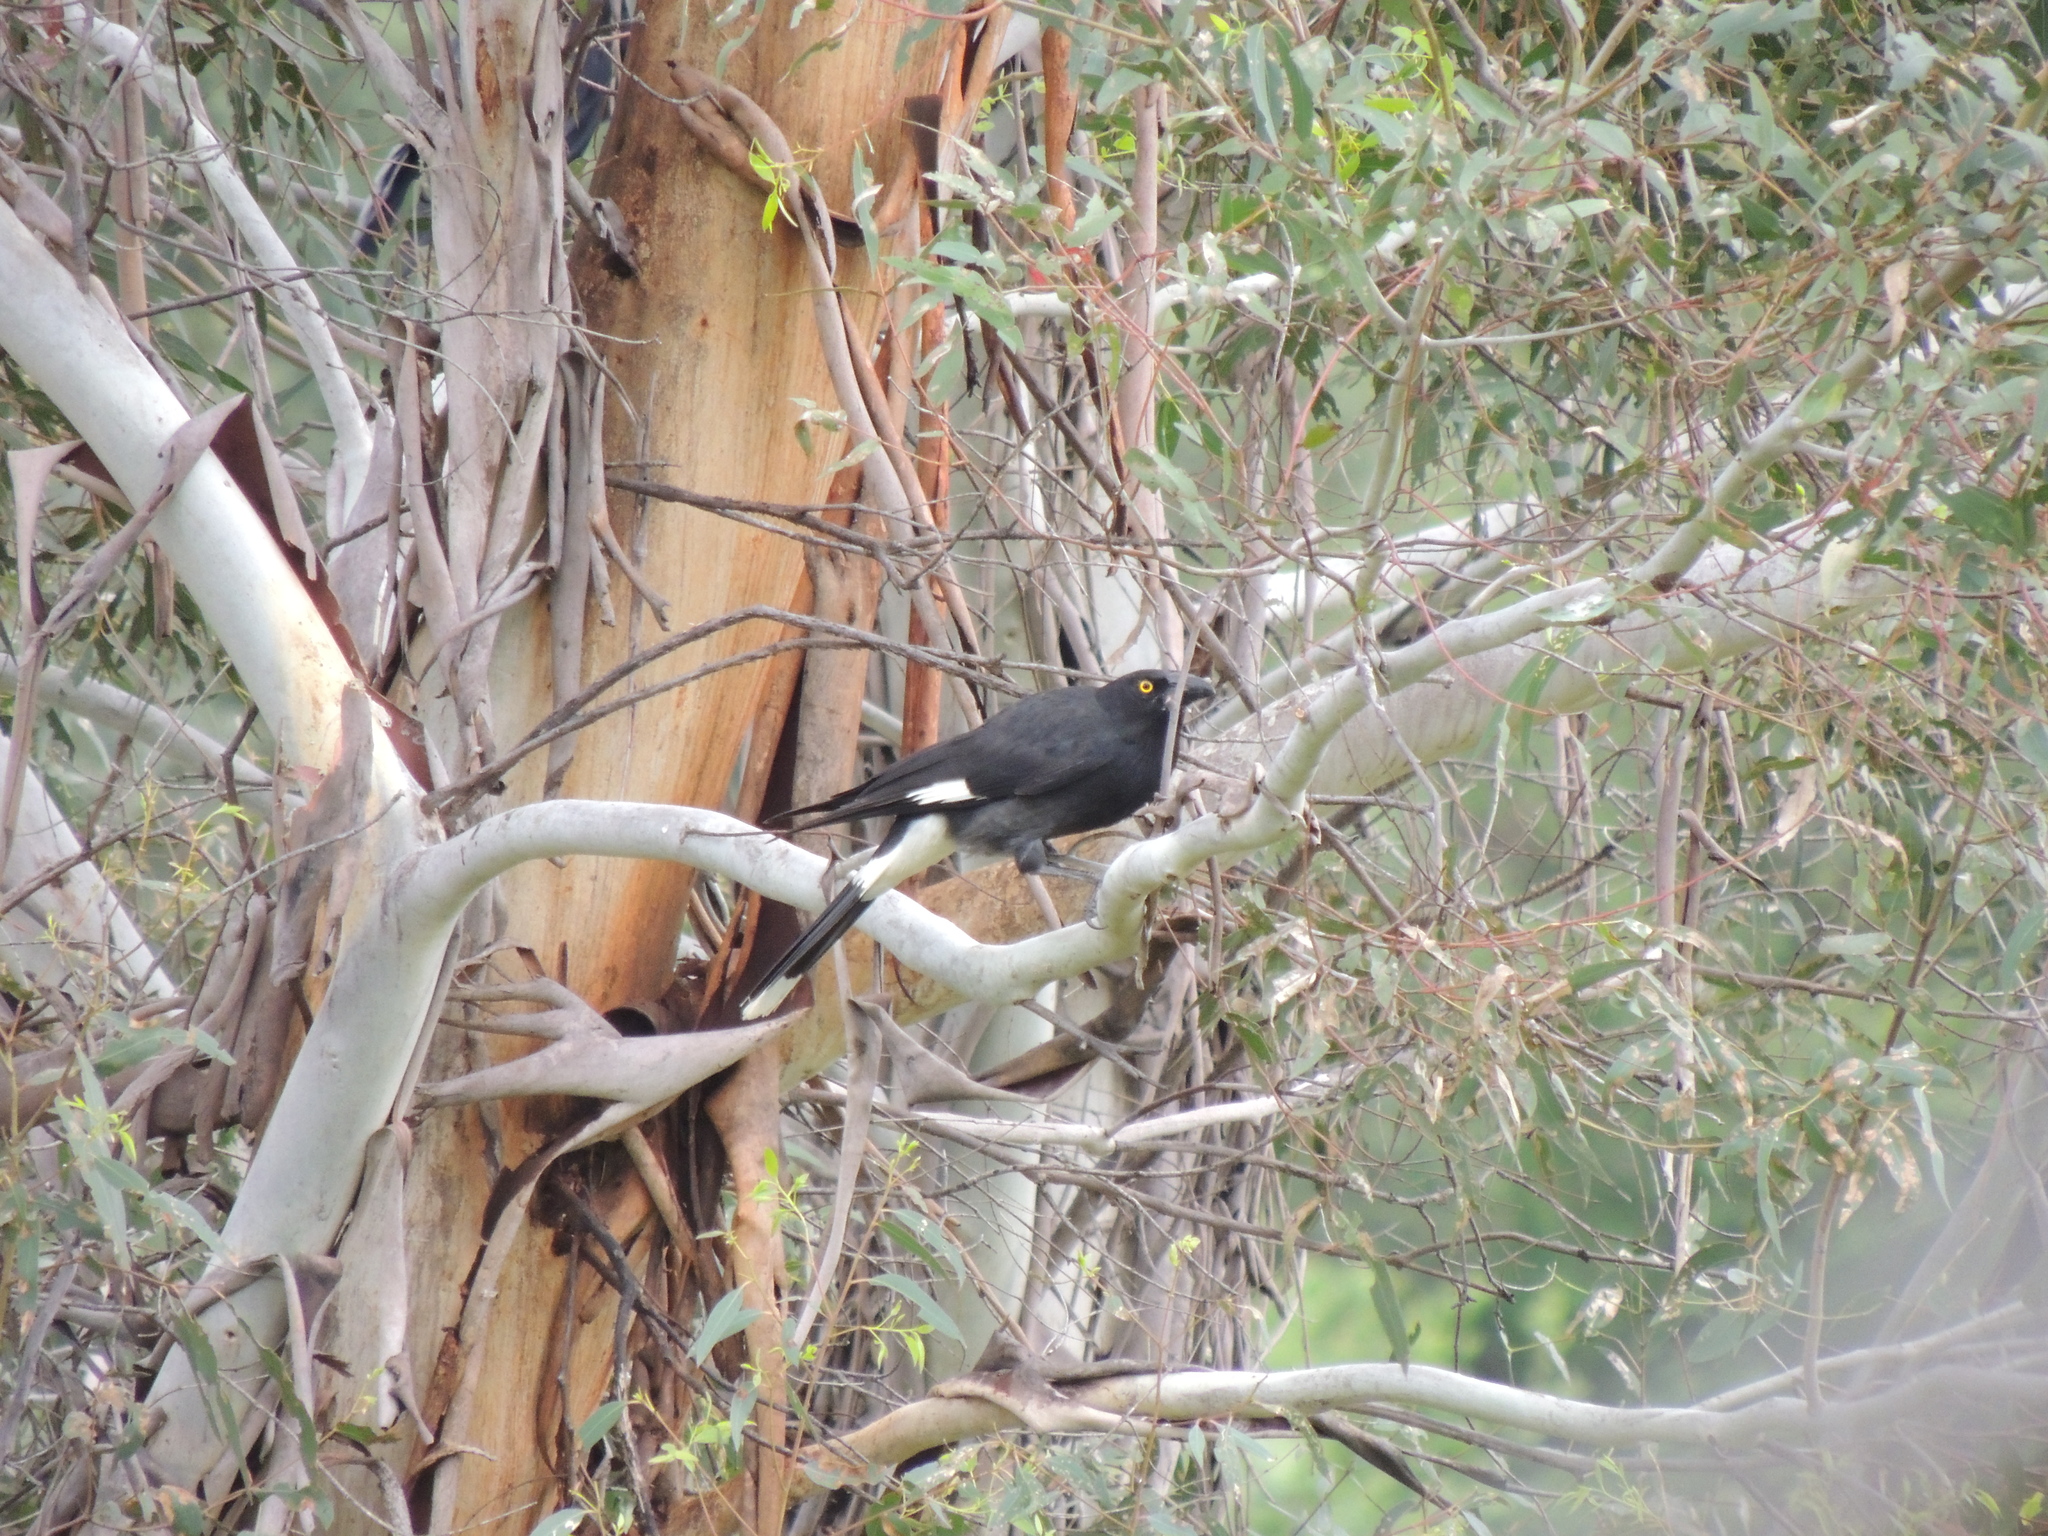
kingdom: Animalia
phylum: Chordata
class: Aves
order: Passeriformes
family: Cracticidae
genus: Strepera
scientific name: Strepera graculina
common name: Pied currawong
